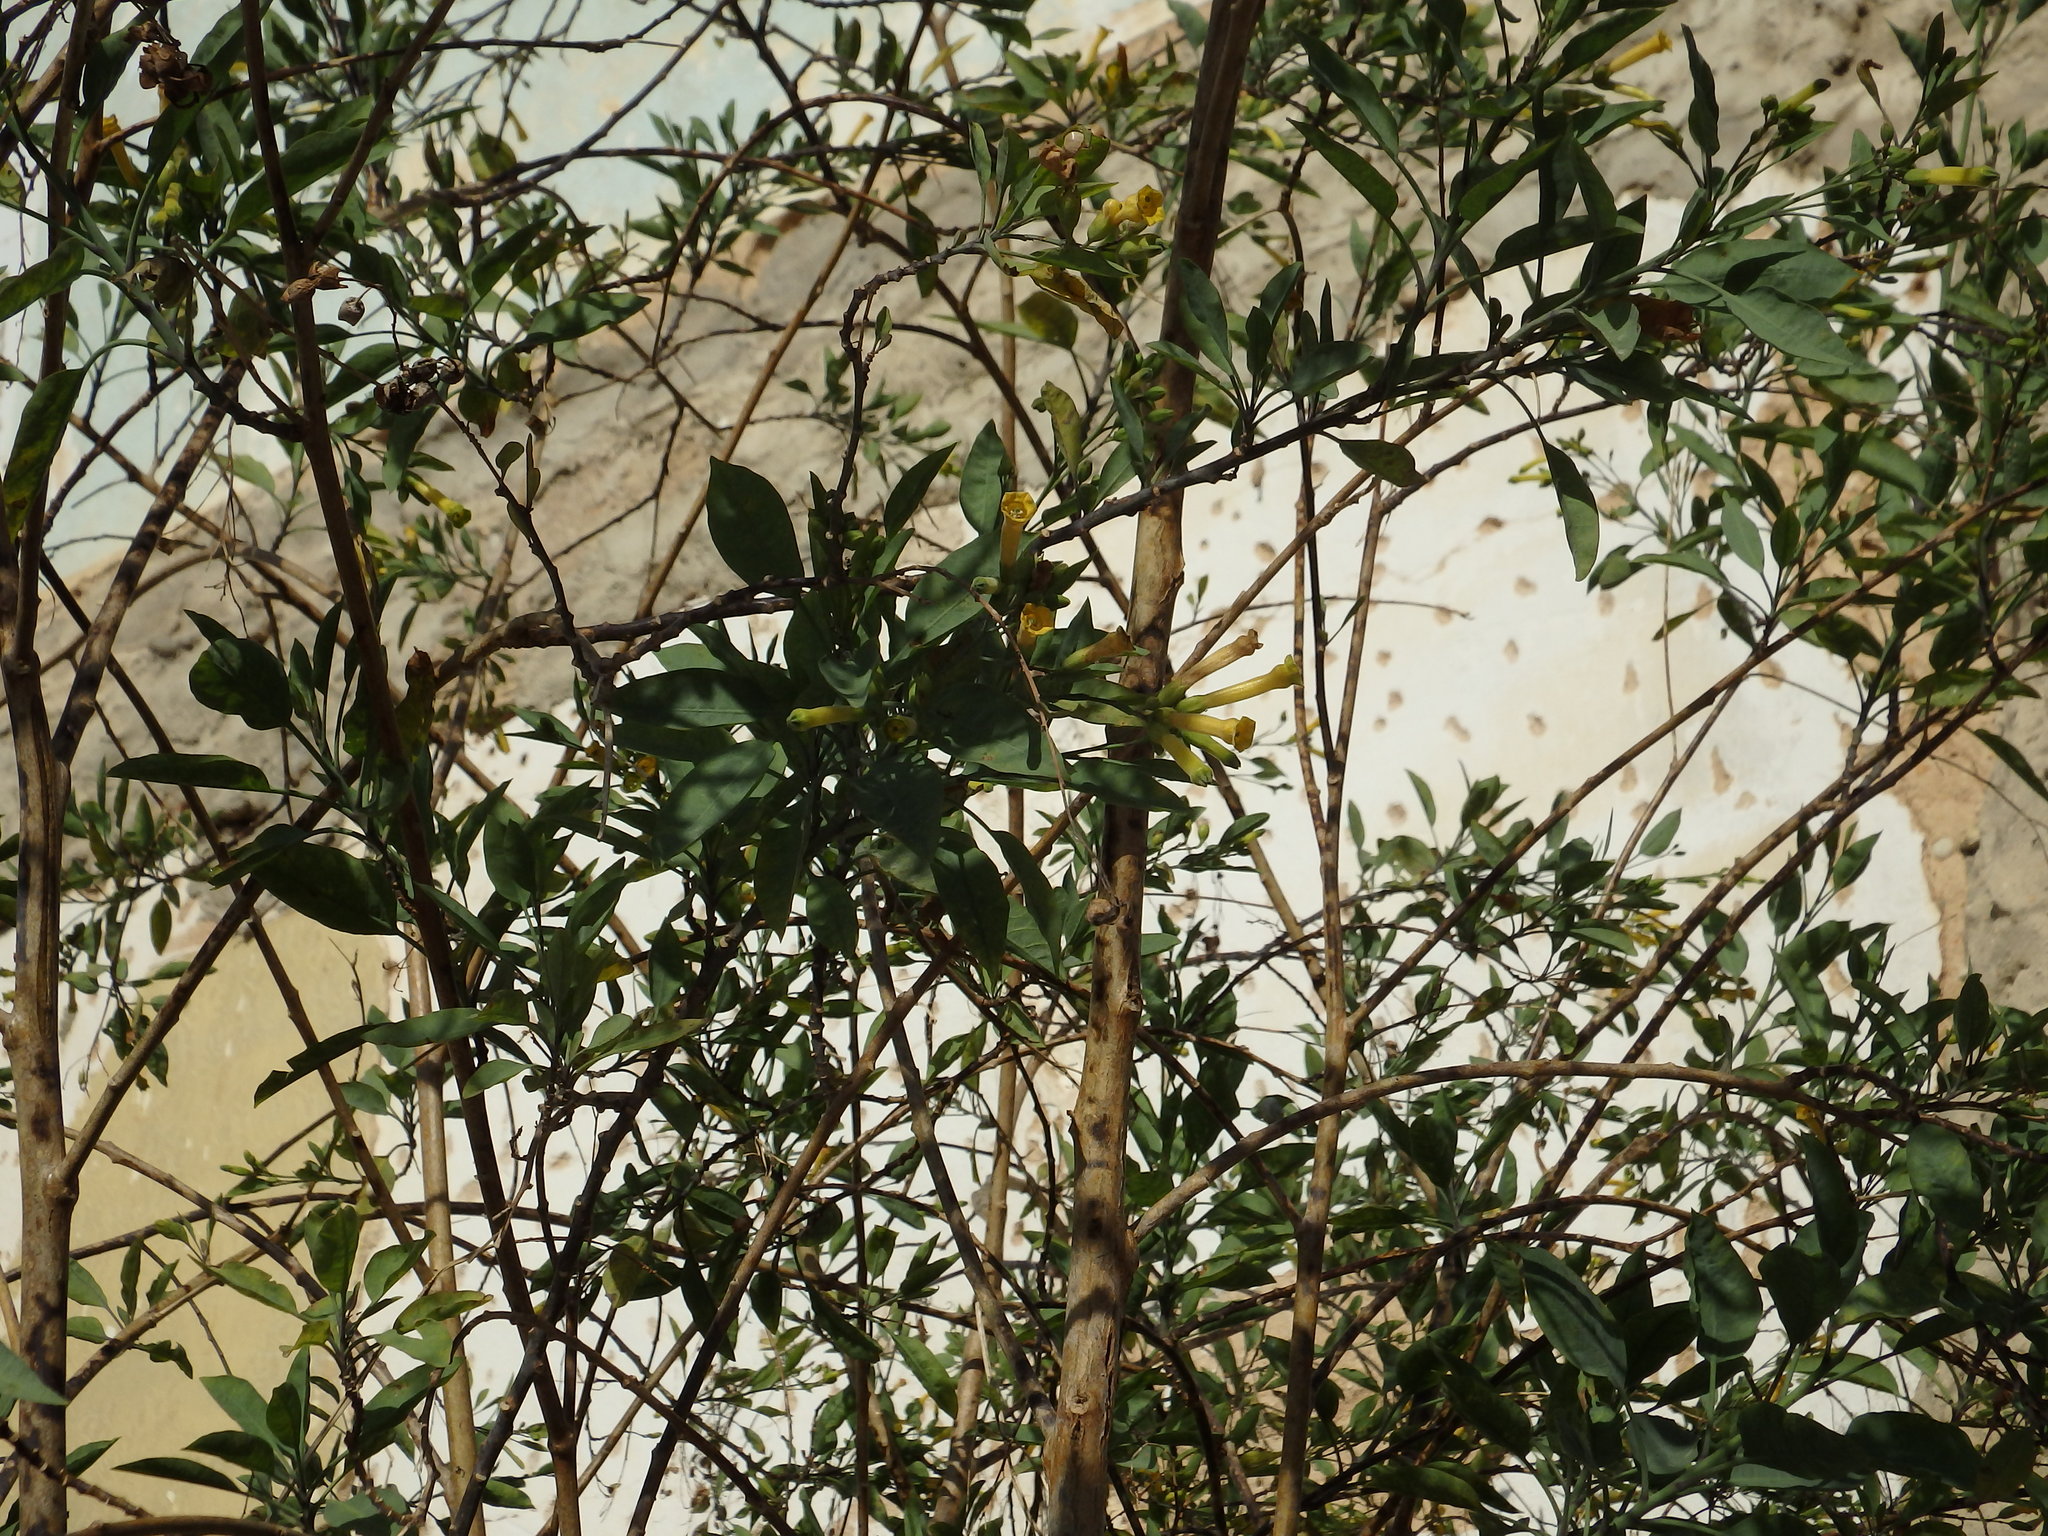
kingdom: Plantae
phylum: Tracheophyta
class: Magnoliopsida
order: Solanales
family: Solanaceae
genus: Nicotiana
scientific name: Nicotiana glauca
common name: Tree tobacco
